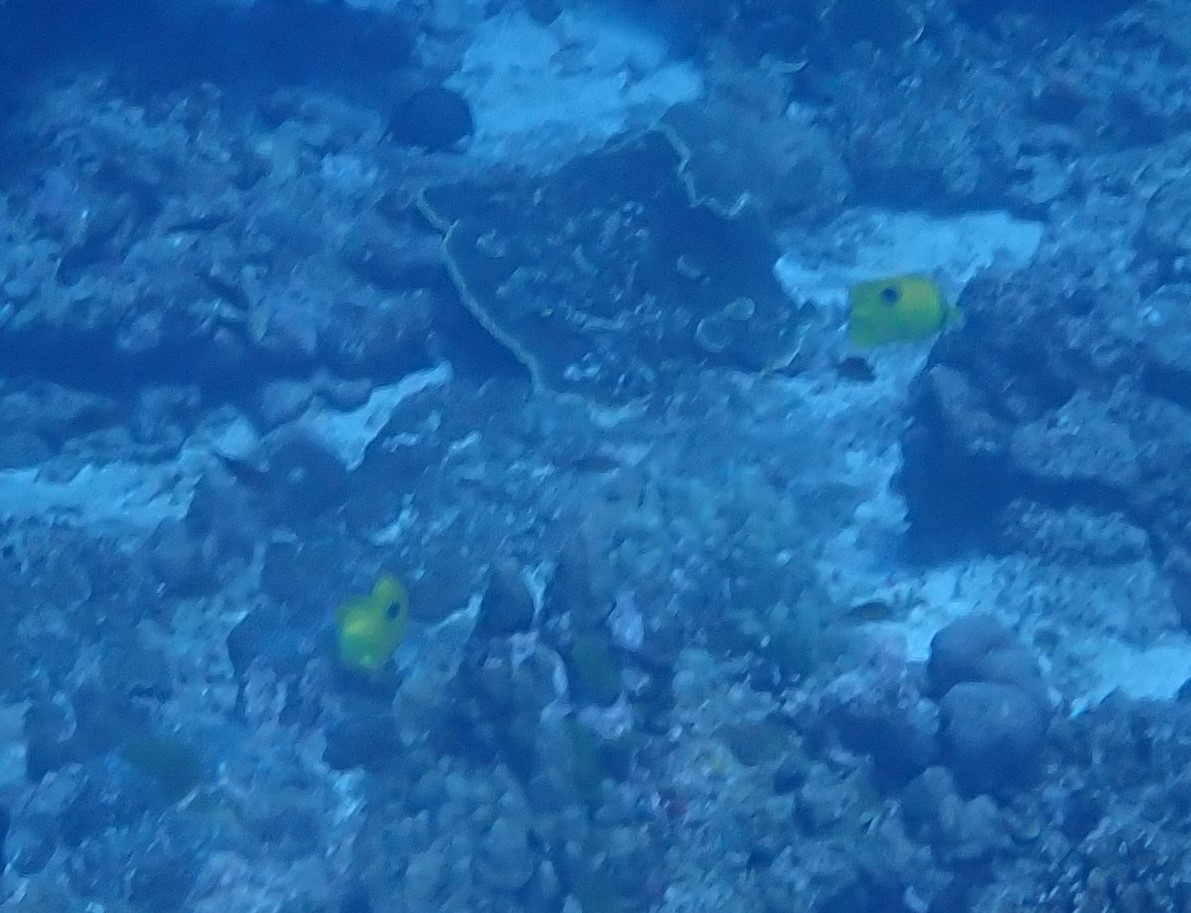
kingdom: Animalia
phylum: Chordata
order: Perciformes
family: Chaetodontidae
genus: Chaetodon
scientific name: Chaetodon interruptus
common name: Yellow teardrop butterflyfish
